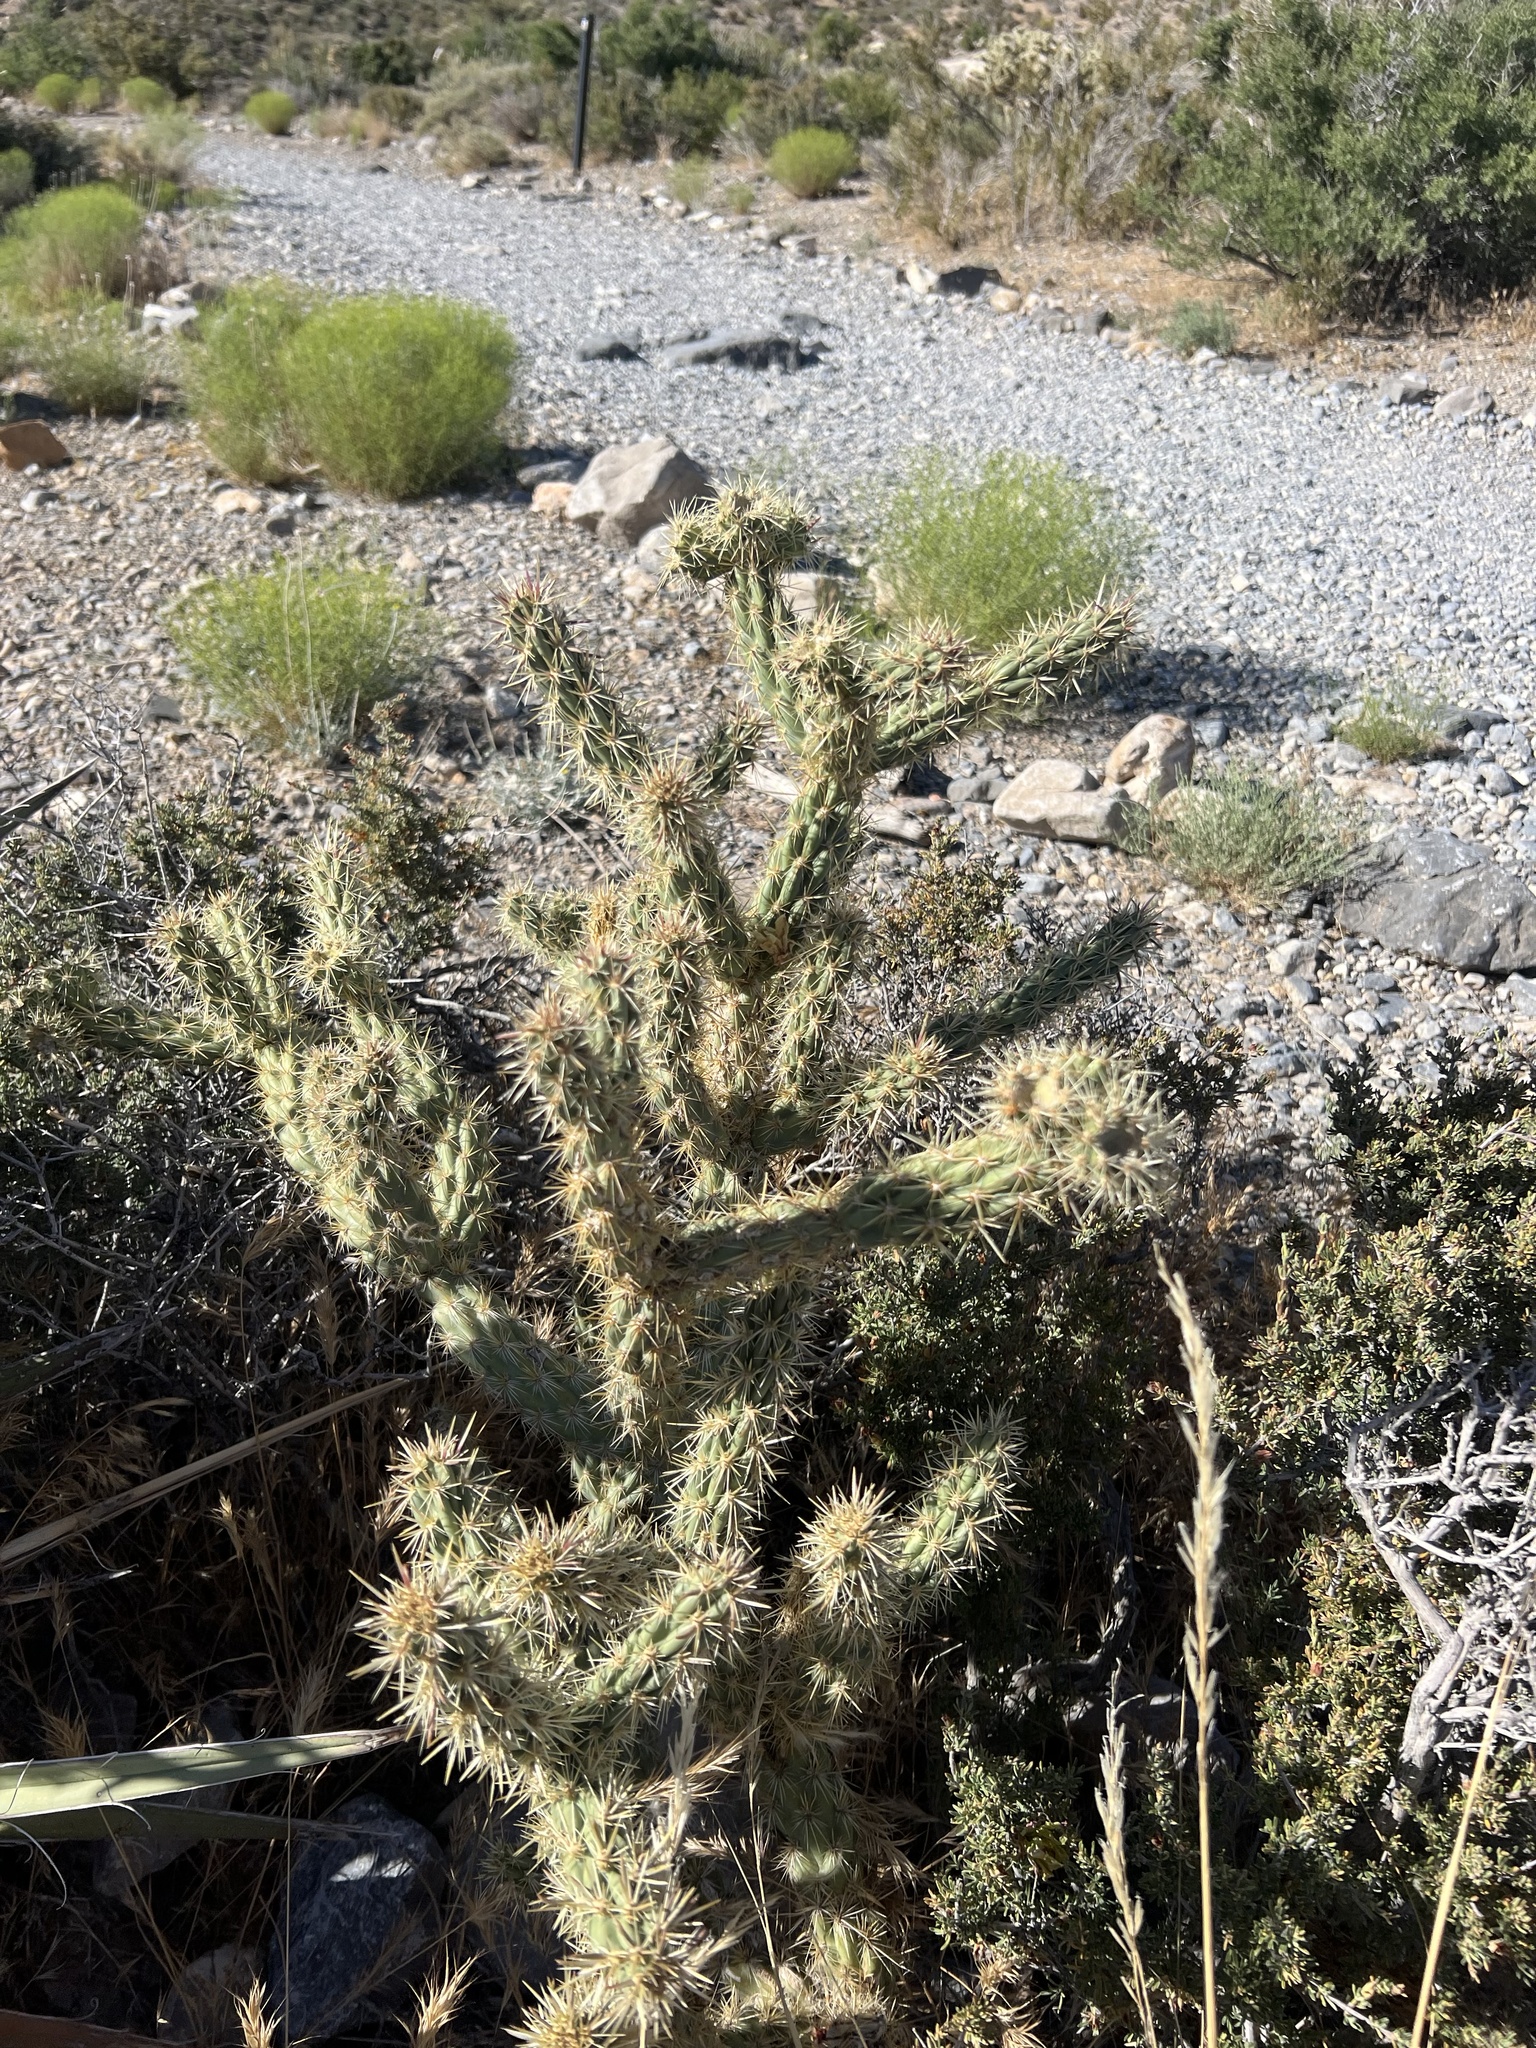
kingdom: Plantae
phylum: Tracheophyta
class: Magnoliopsida
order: Caryophyllales
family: Cactaceae
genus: Cylindropuntia
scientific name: Cylindropuntia acanthocarpa
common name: Buckhorn cholla
